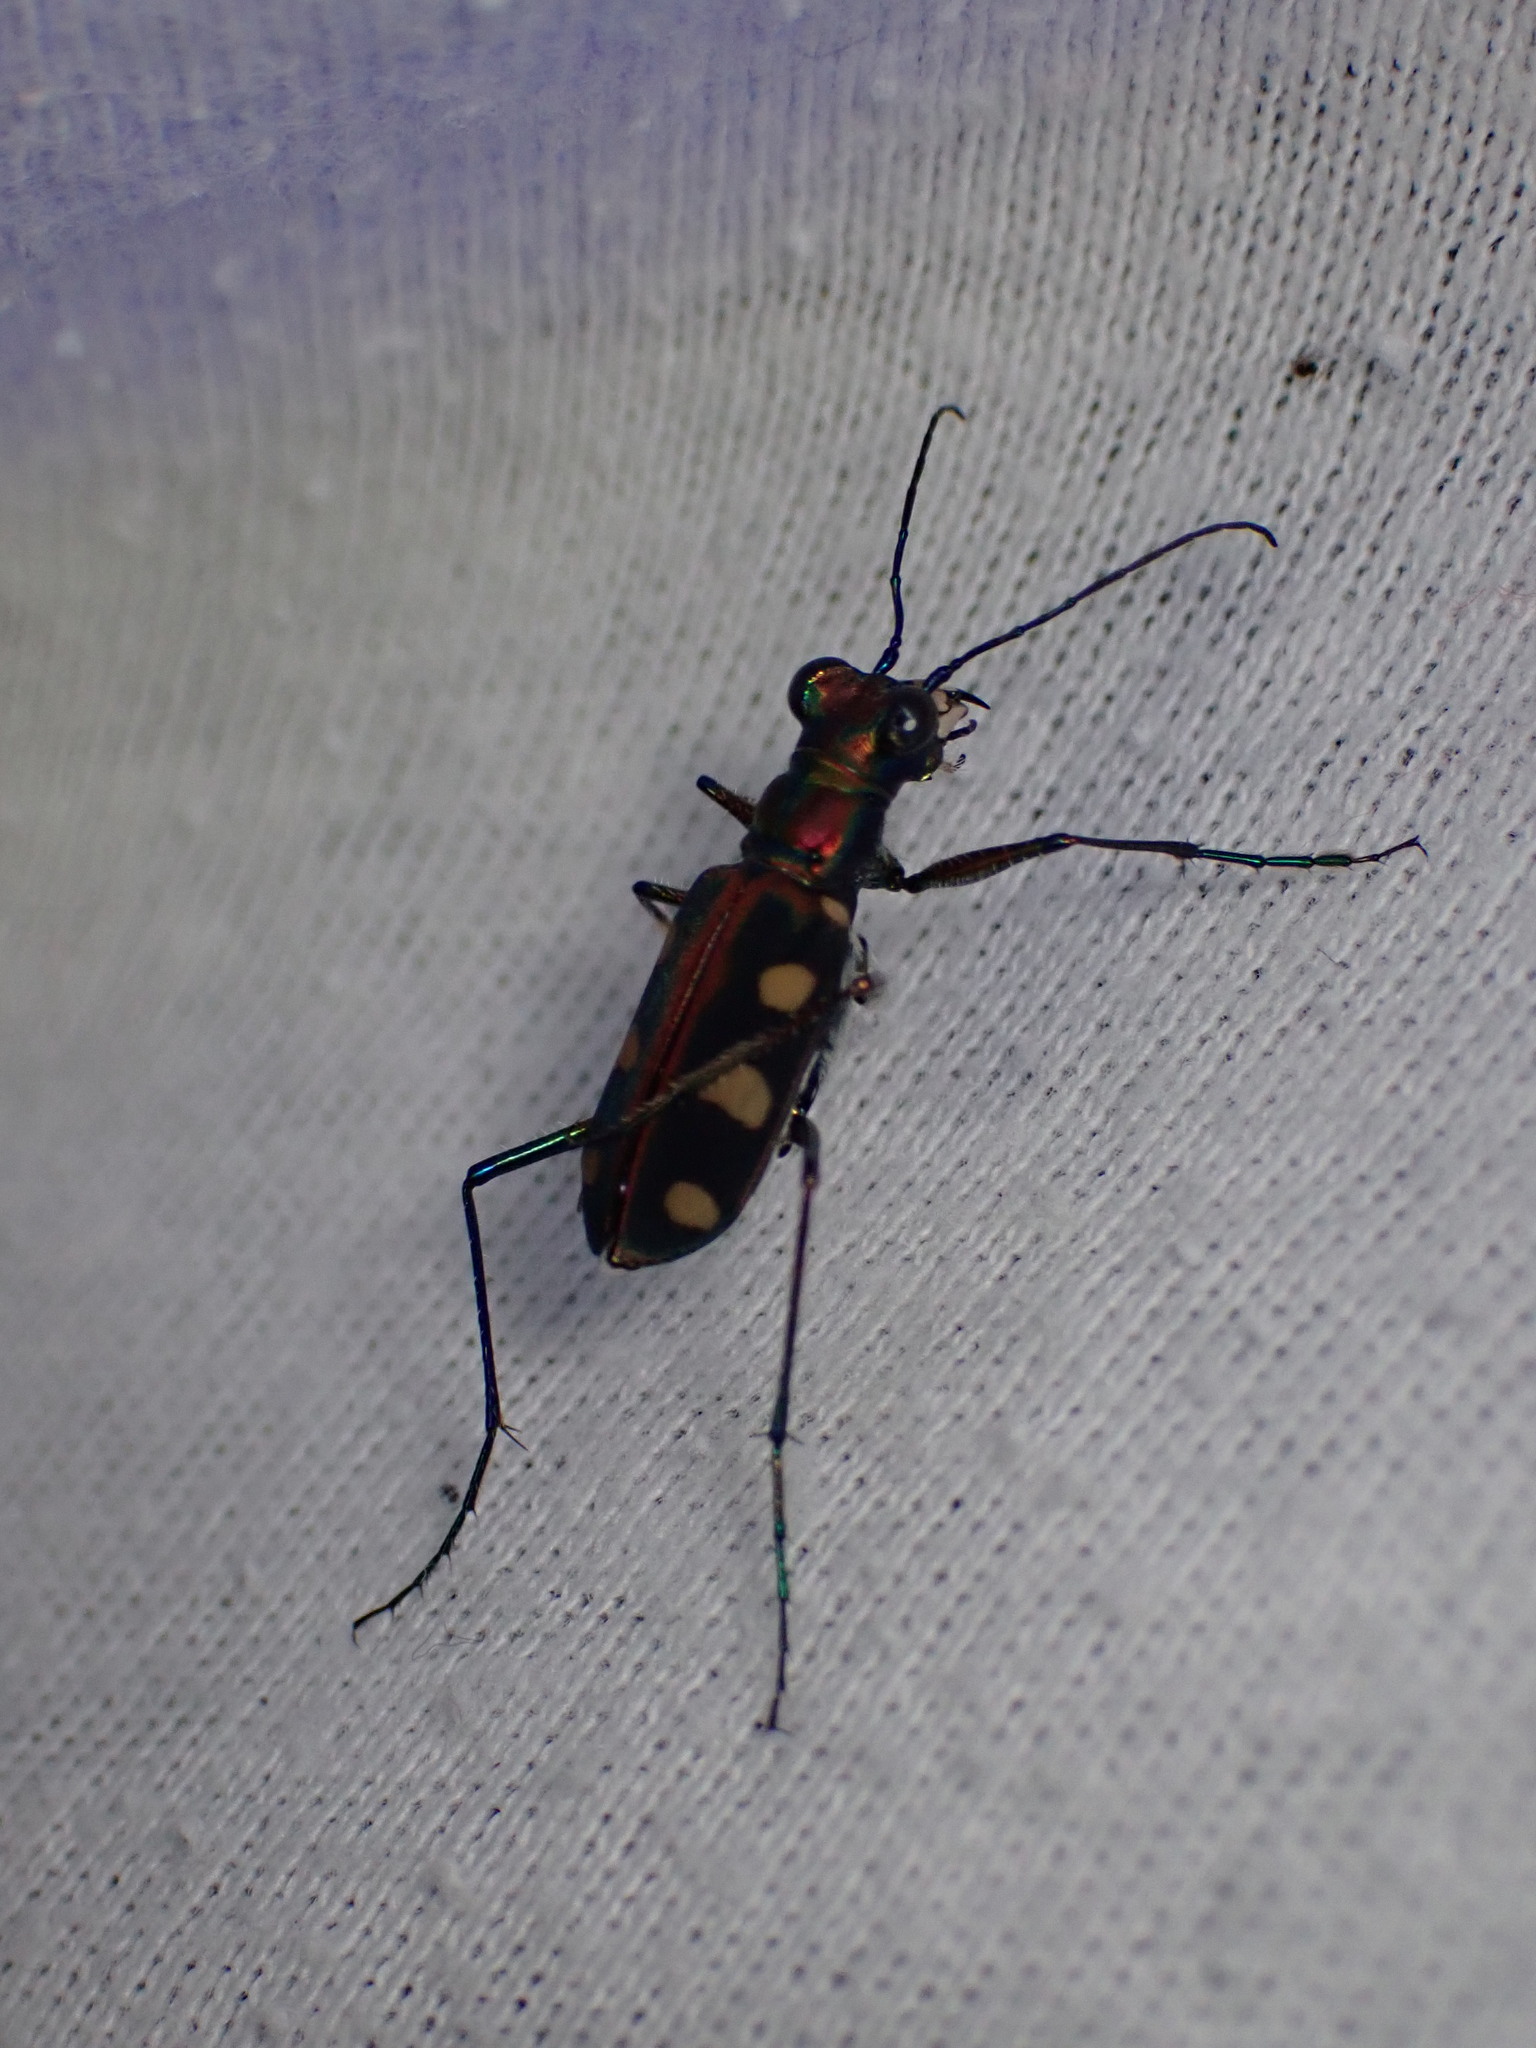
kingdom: Animalia
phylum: Arthropoda
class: Insecta
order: Coleoptera
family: Carabidae
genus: Cicindela
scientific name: Cicindela aurulenta
